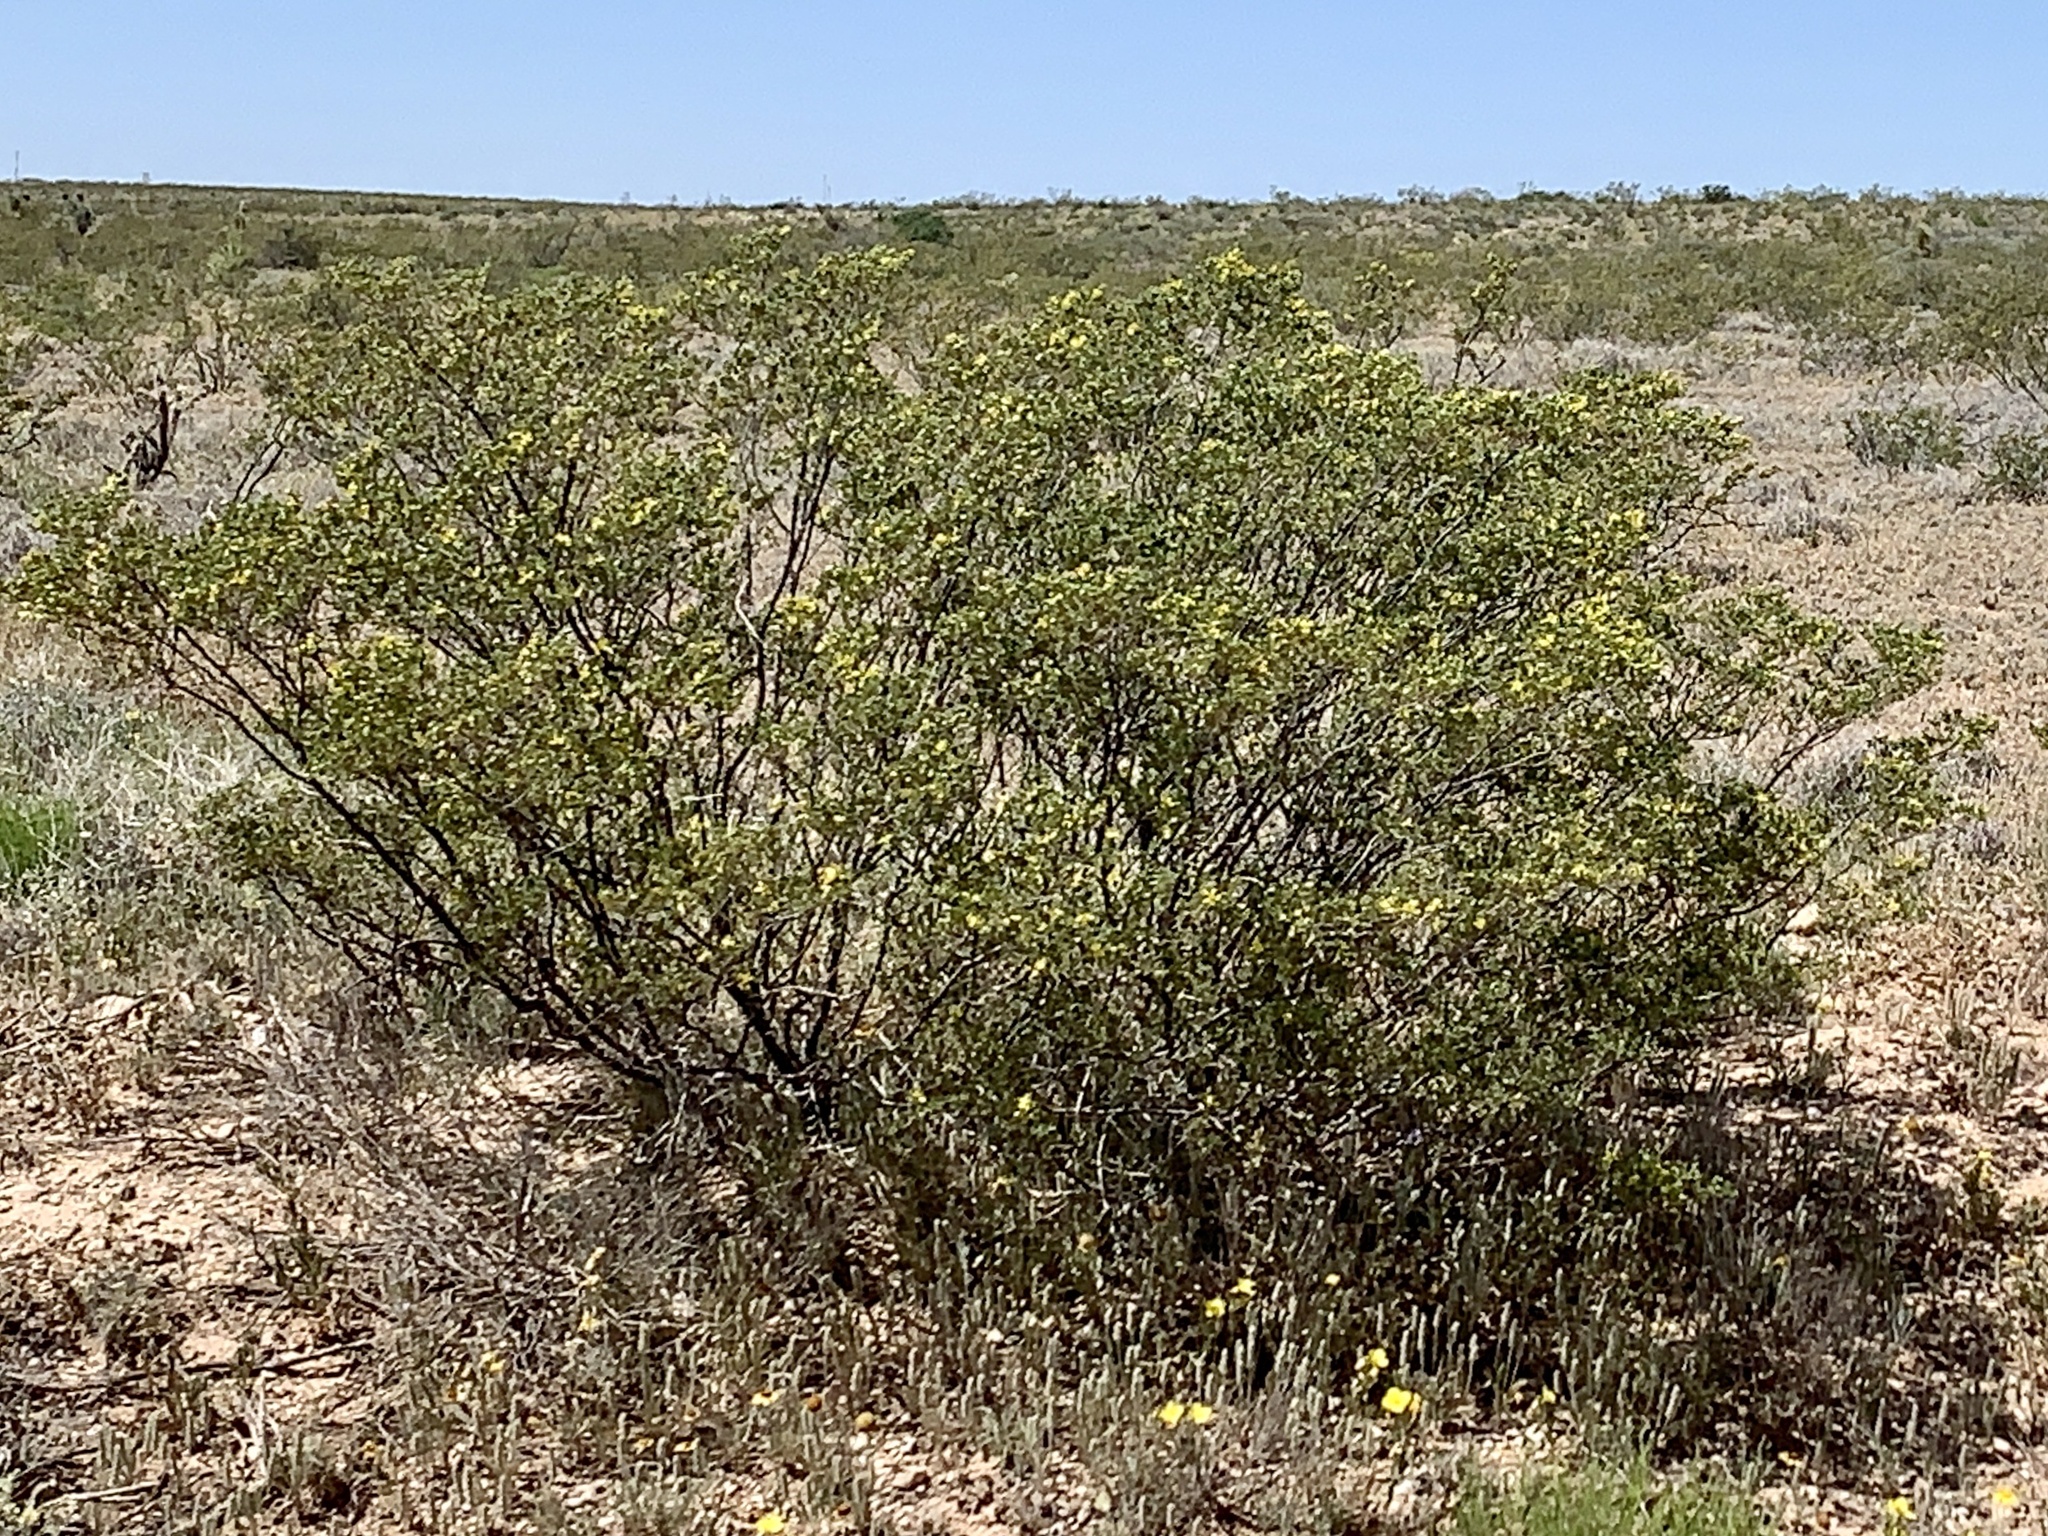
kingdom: Plantae
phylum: Tracheophyta
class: Magnoliopsida
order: Zygophyllales
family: Zygophyllaceae
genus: Larrea
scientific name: Larrea tridentata
